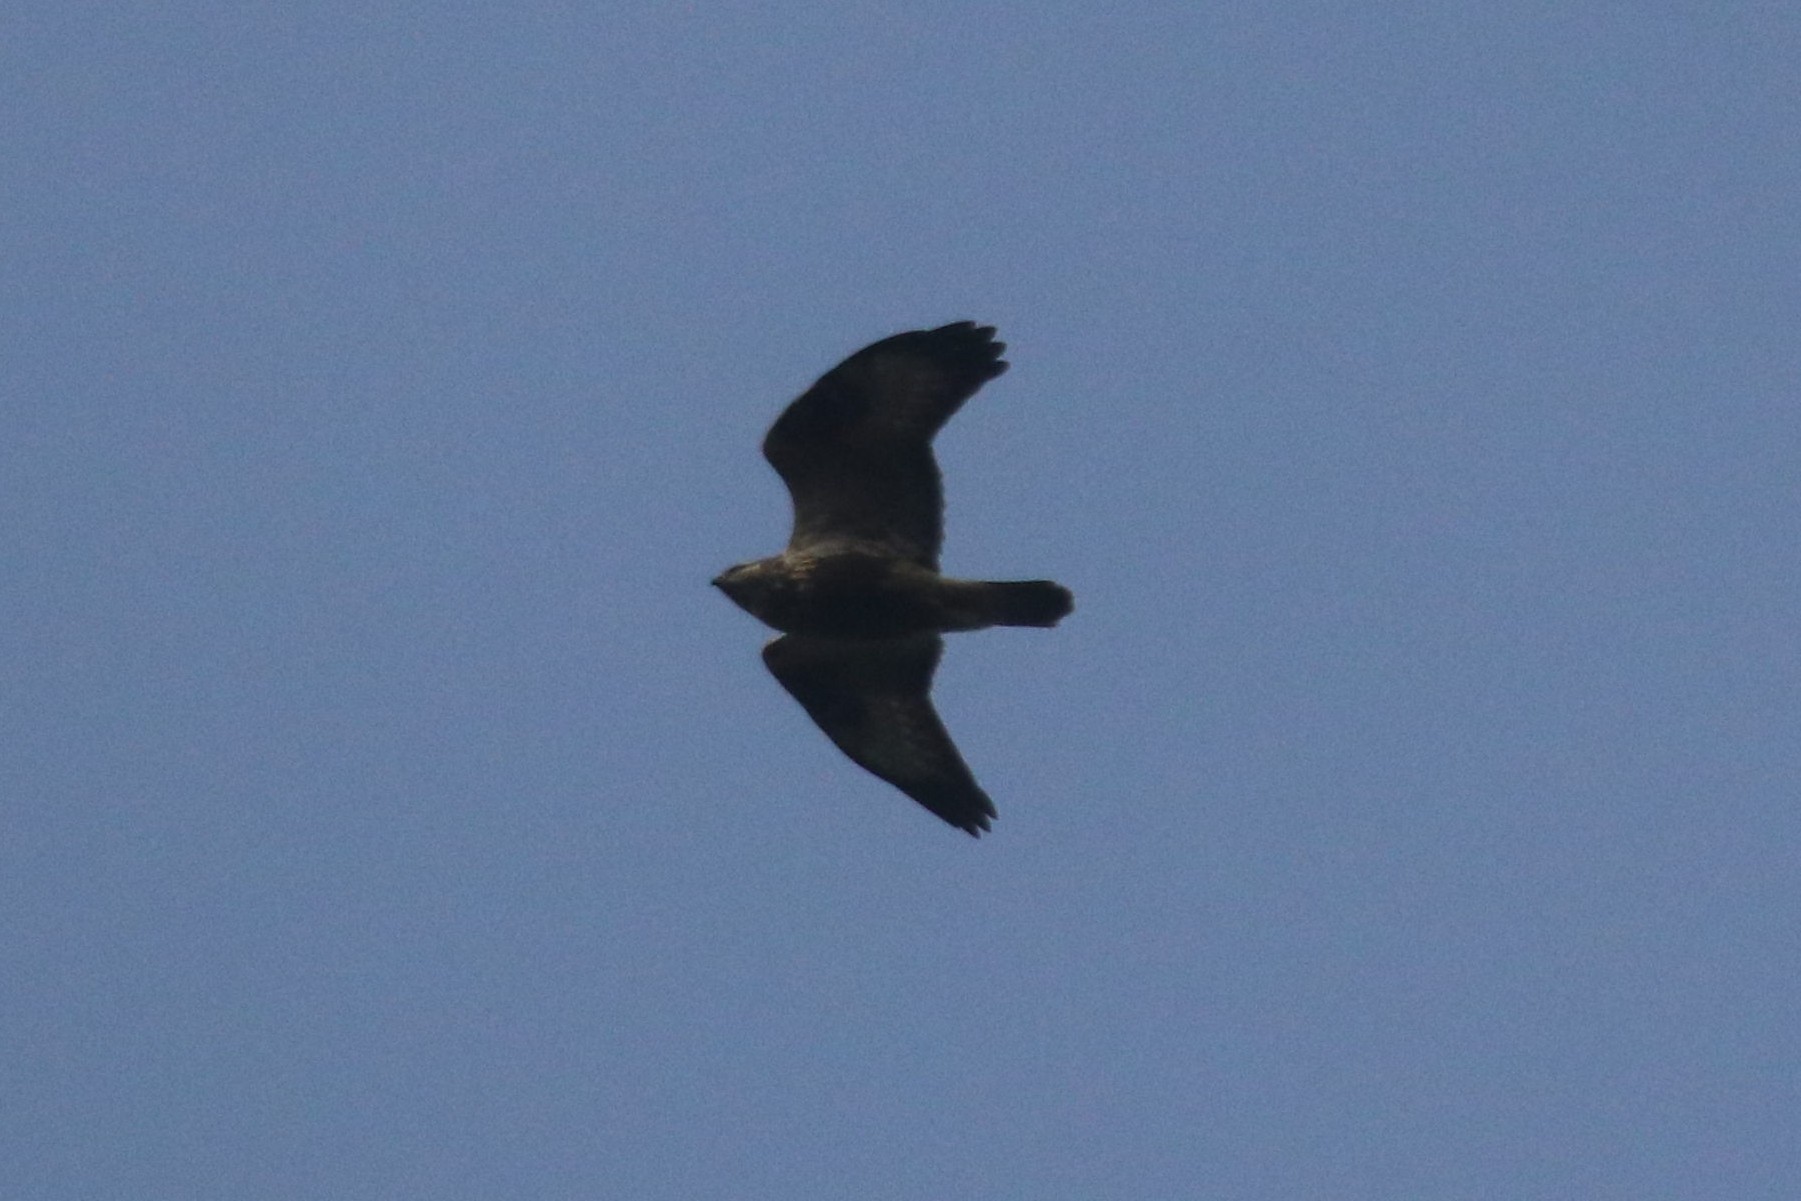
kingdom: Animalia
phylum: Chordata
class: Aves
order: Accipitriformes
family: Accipitridae
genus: Buteo
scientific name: Buteo buteo
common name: Common buzzard
